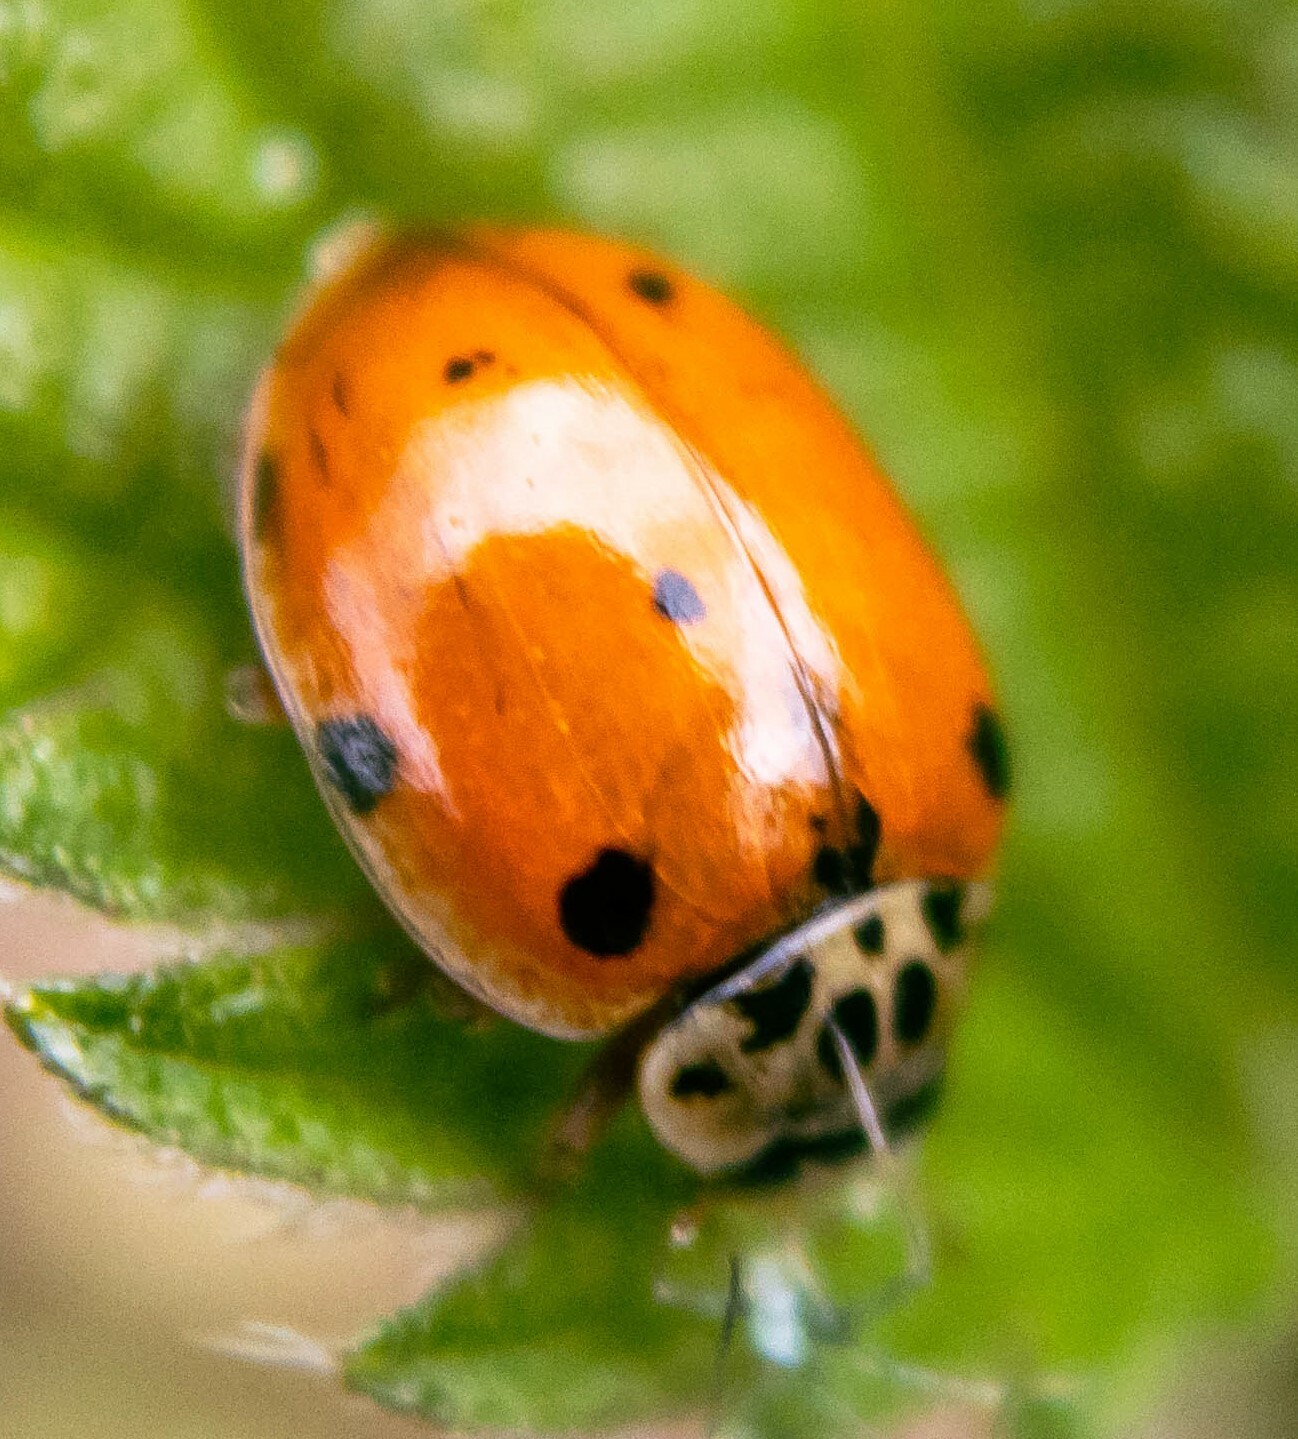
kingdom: Animalia
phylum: Arthropoda
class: Insecta
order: Coleoptera
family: Coccinellidae
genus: Harmonia
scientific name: Harmonia quadripunctata
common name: Cream-streaked ladybird
